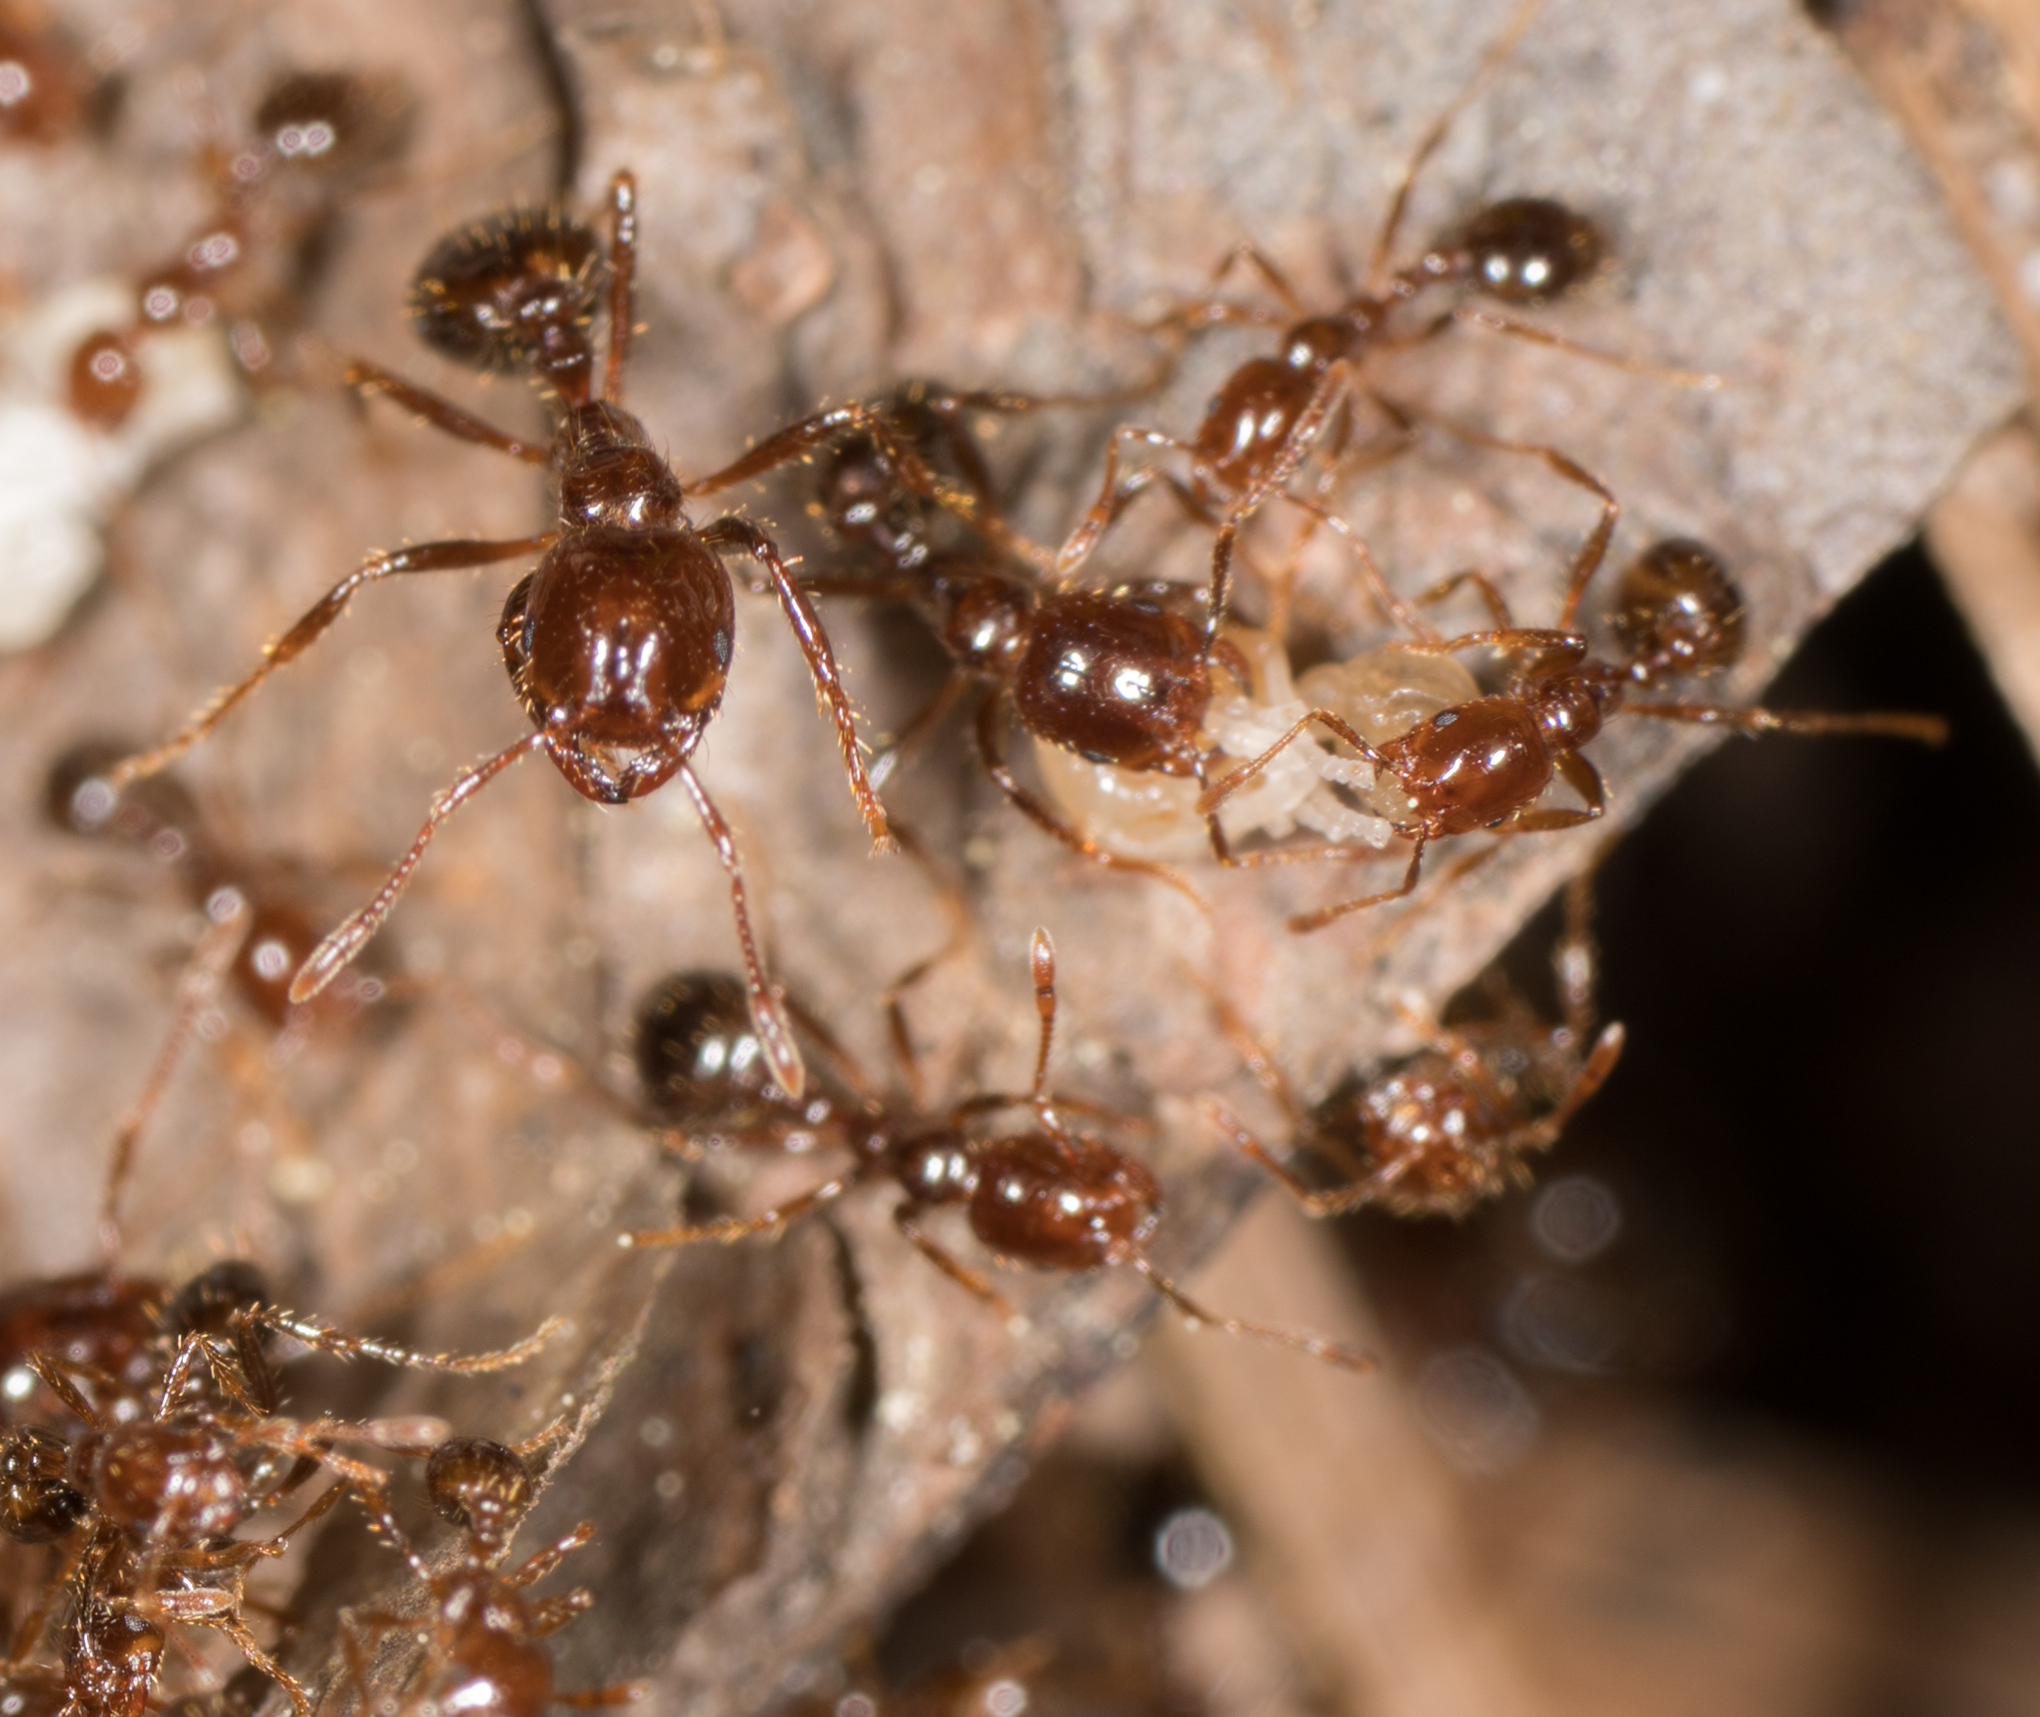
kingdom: Animalia
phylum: Arthropoda
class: Insecta
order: Hymenoptera
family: Formicidae
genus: Solenopsis
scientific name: Solenopsis invicta
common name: Red imported fire ant
